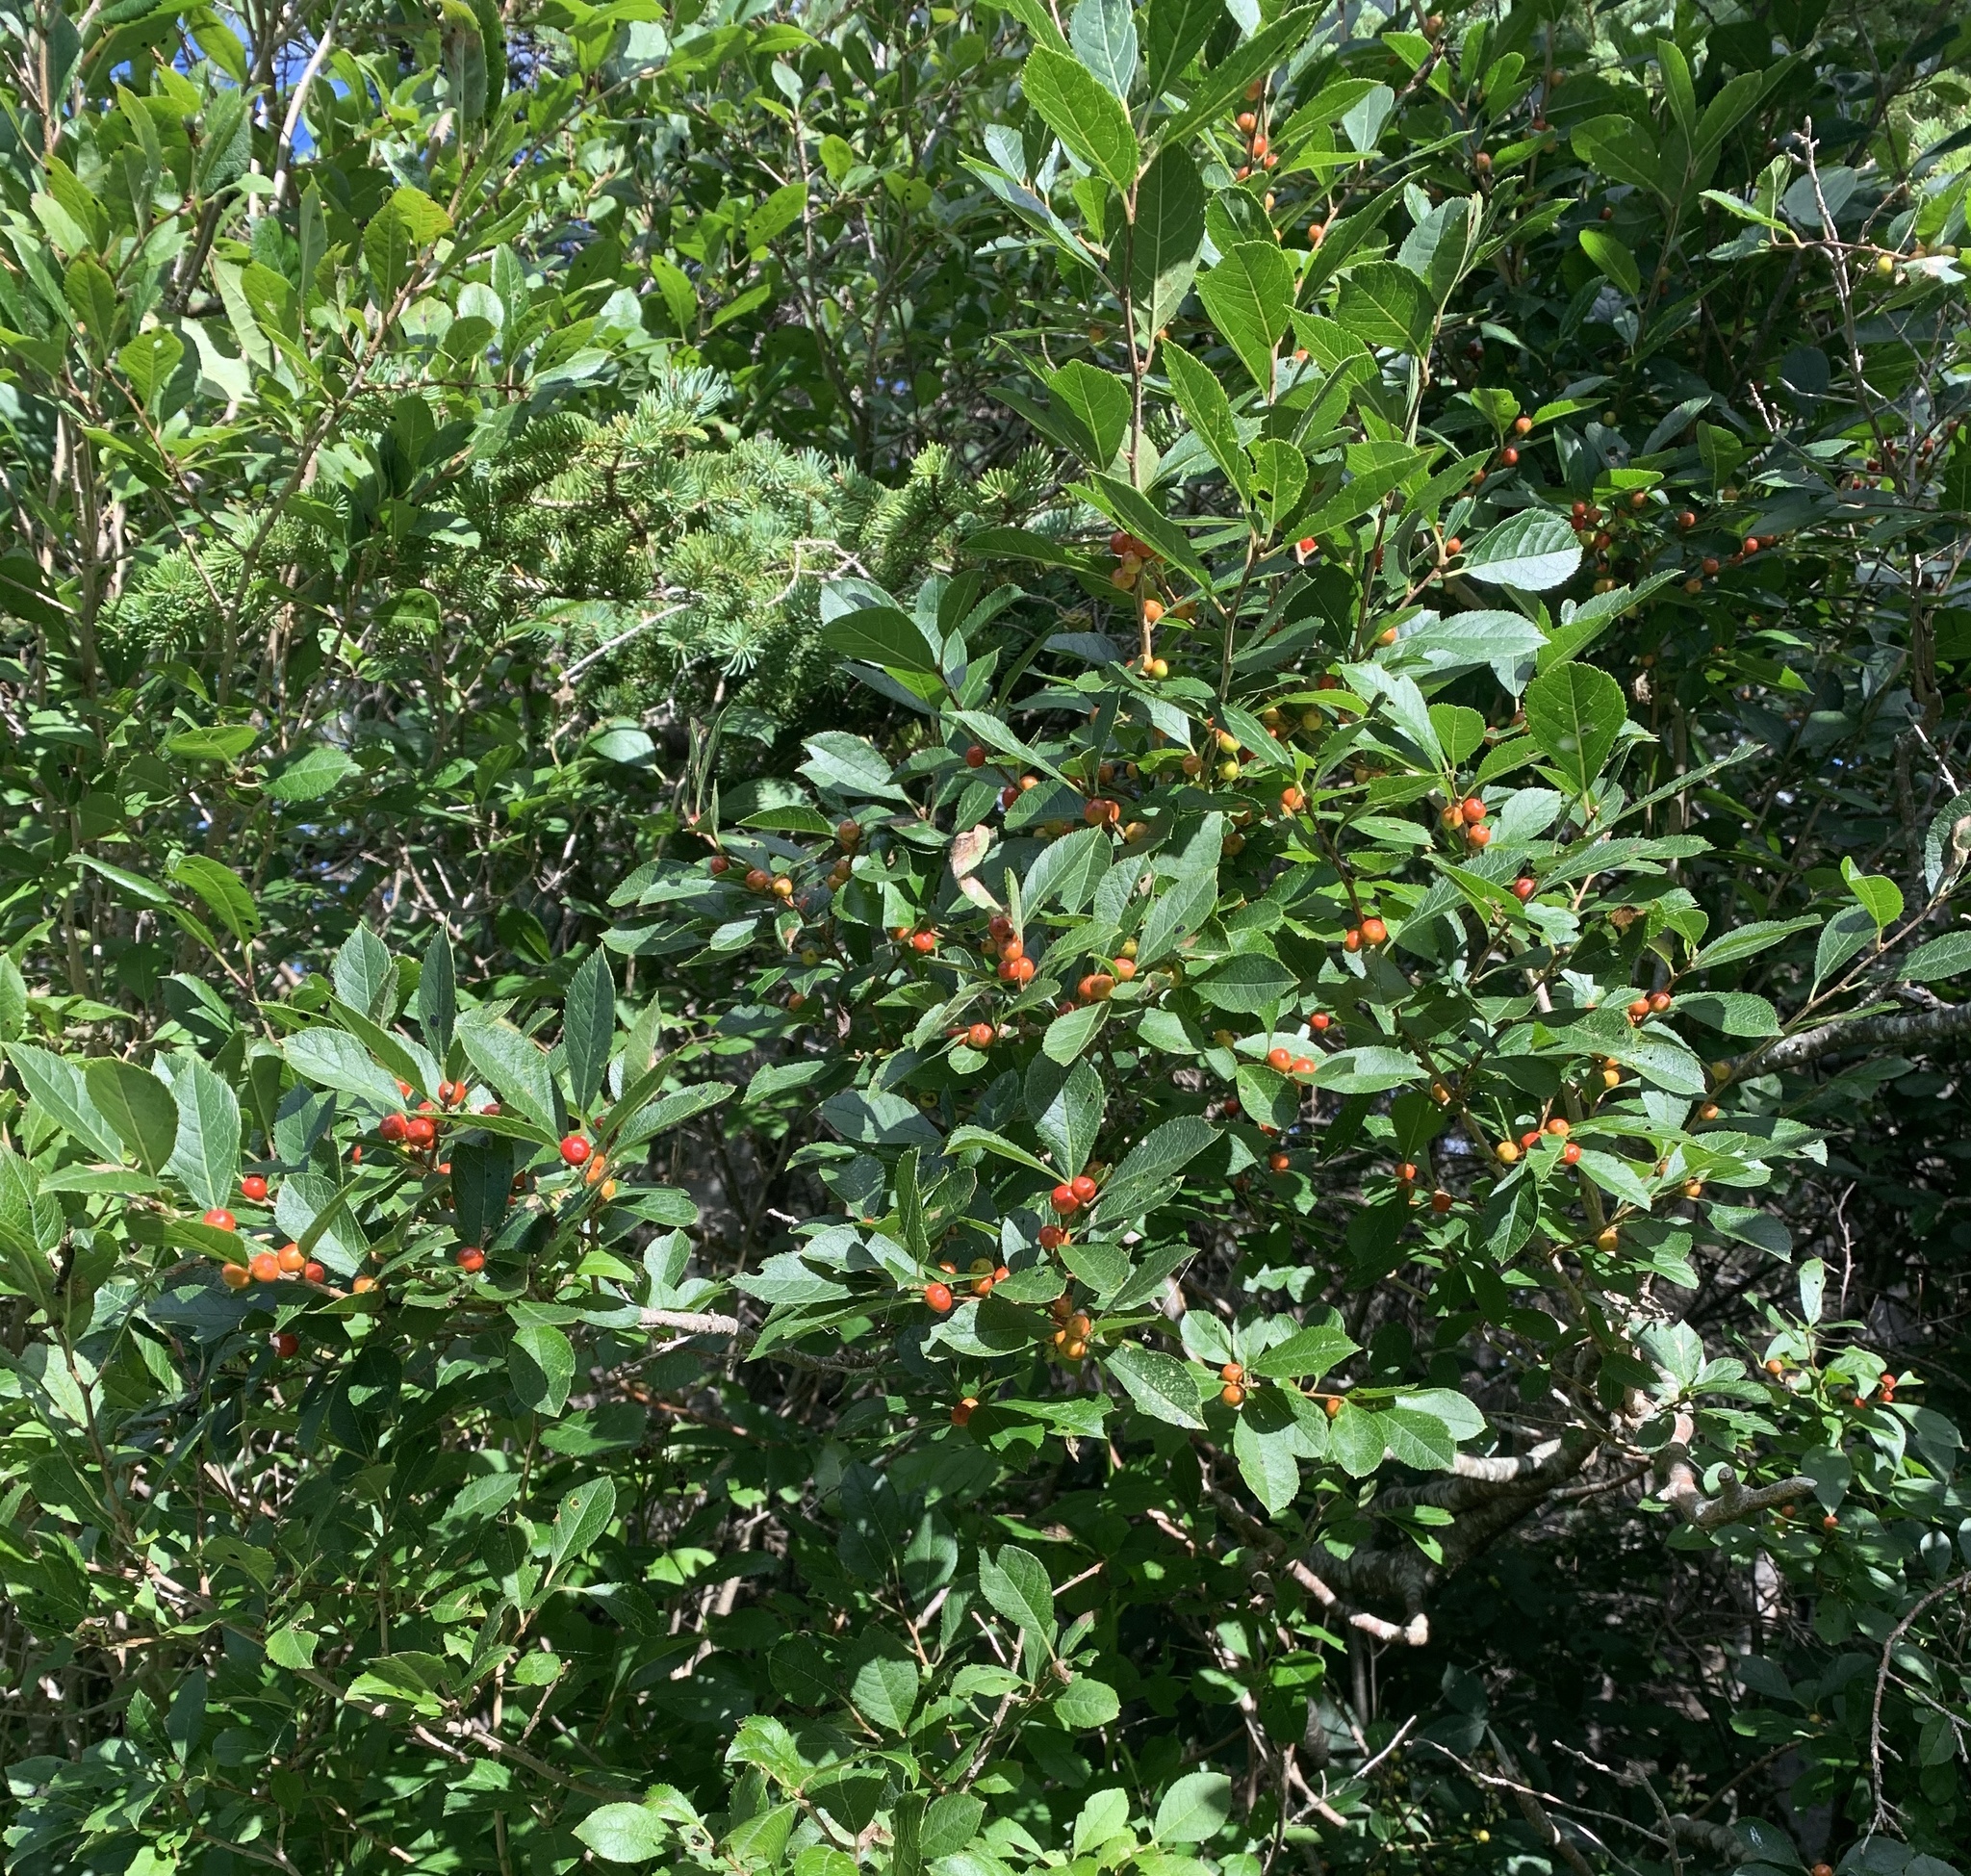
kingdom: Plantae
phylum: Tracheophyta
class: Magnoliopsida
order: Aquifoliales
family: Aquifoliaceae
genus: Ilex
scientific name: Ilex verticillata
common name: Virginia winterberry
